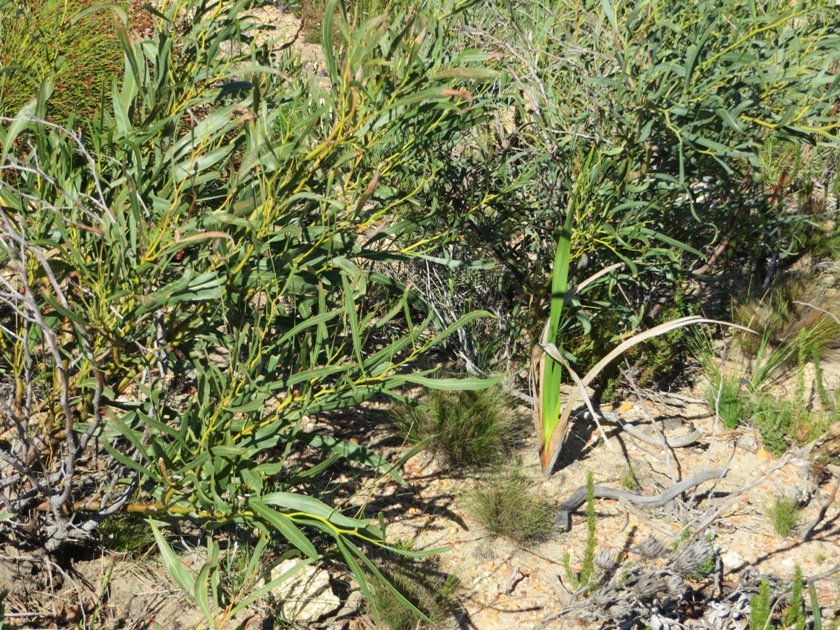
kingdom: Plantae
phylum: Tracheophyta
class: Magnoliopsida
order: Fabales
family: Fabaceae
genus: Acacia
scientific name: Acacia saligna
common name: Orange wattle
